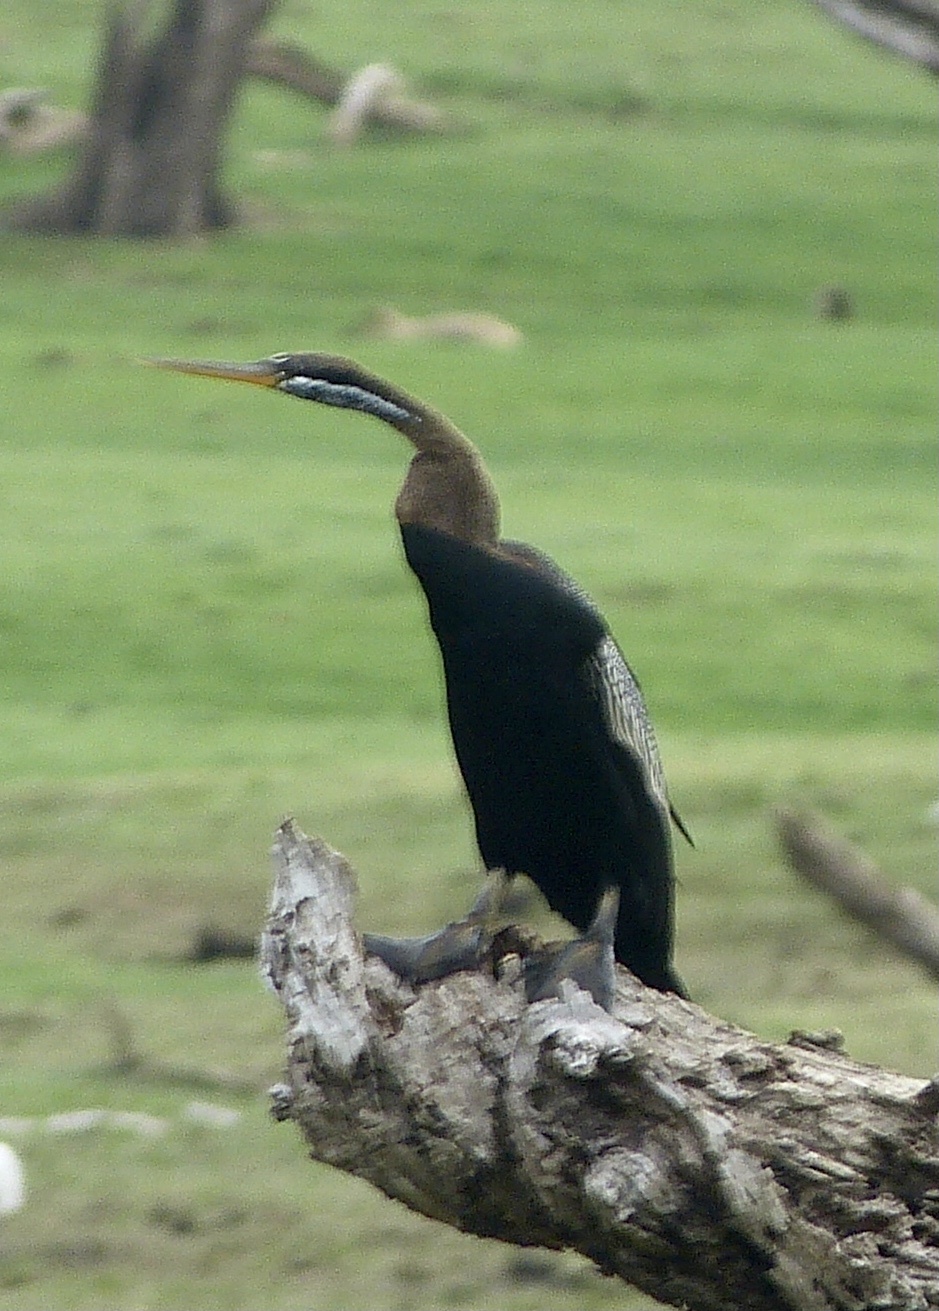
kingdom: Animalia
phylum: Chordata
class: Aves
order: Suliformes
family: Anhingidae
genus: Anhinga
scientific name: Anhinga melanogaster
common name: Oriental darter
